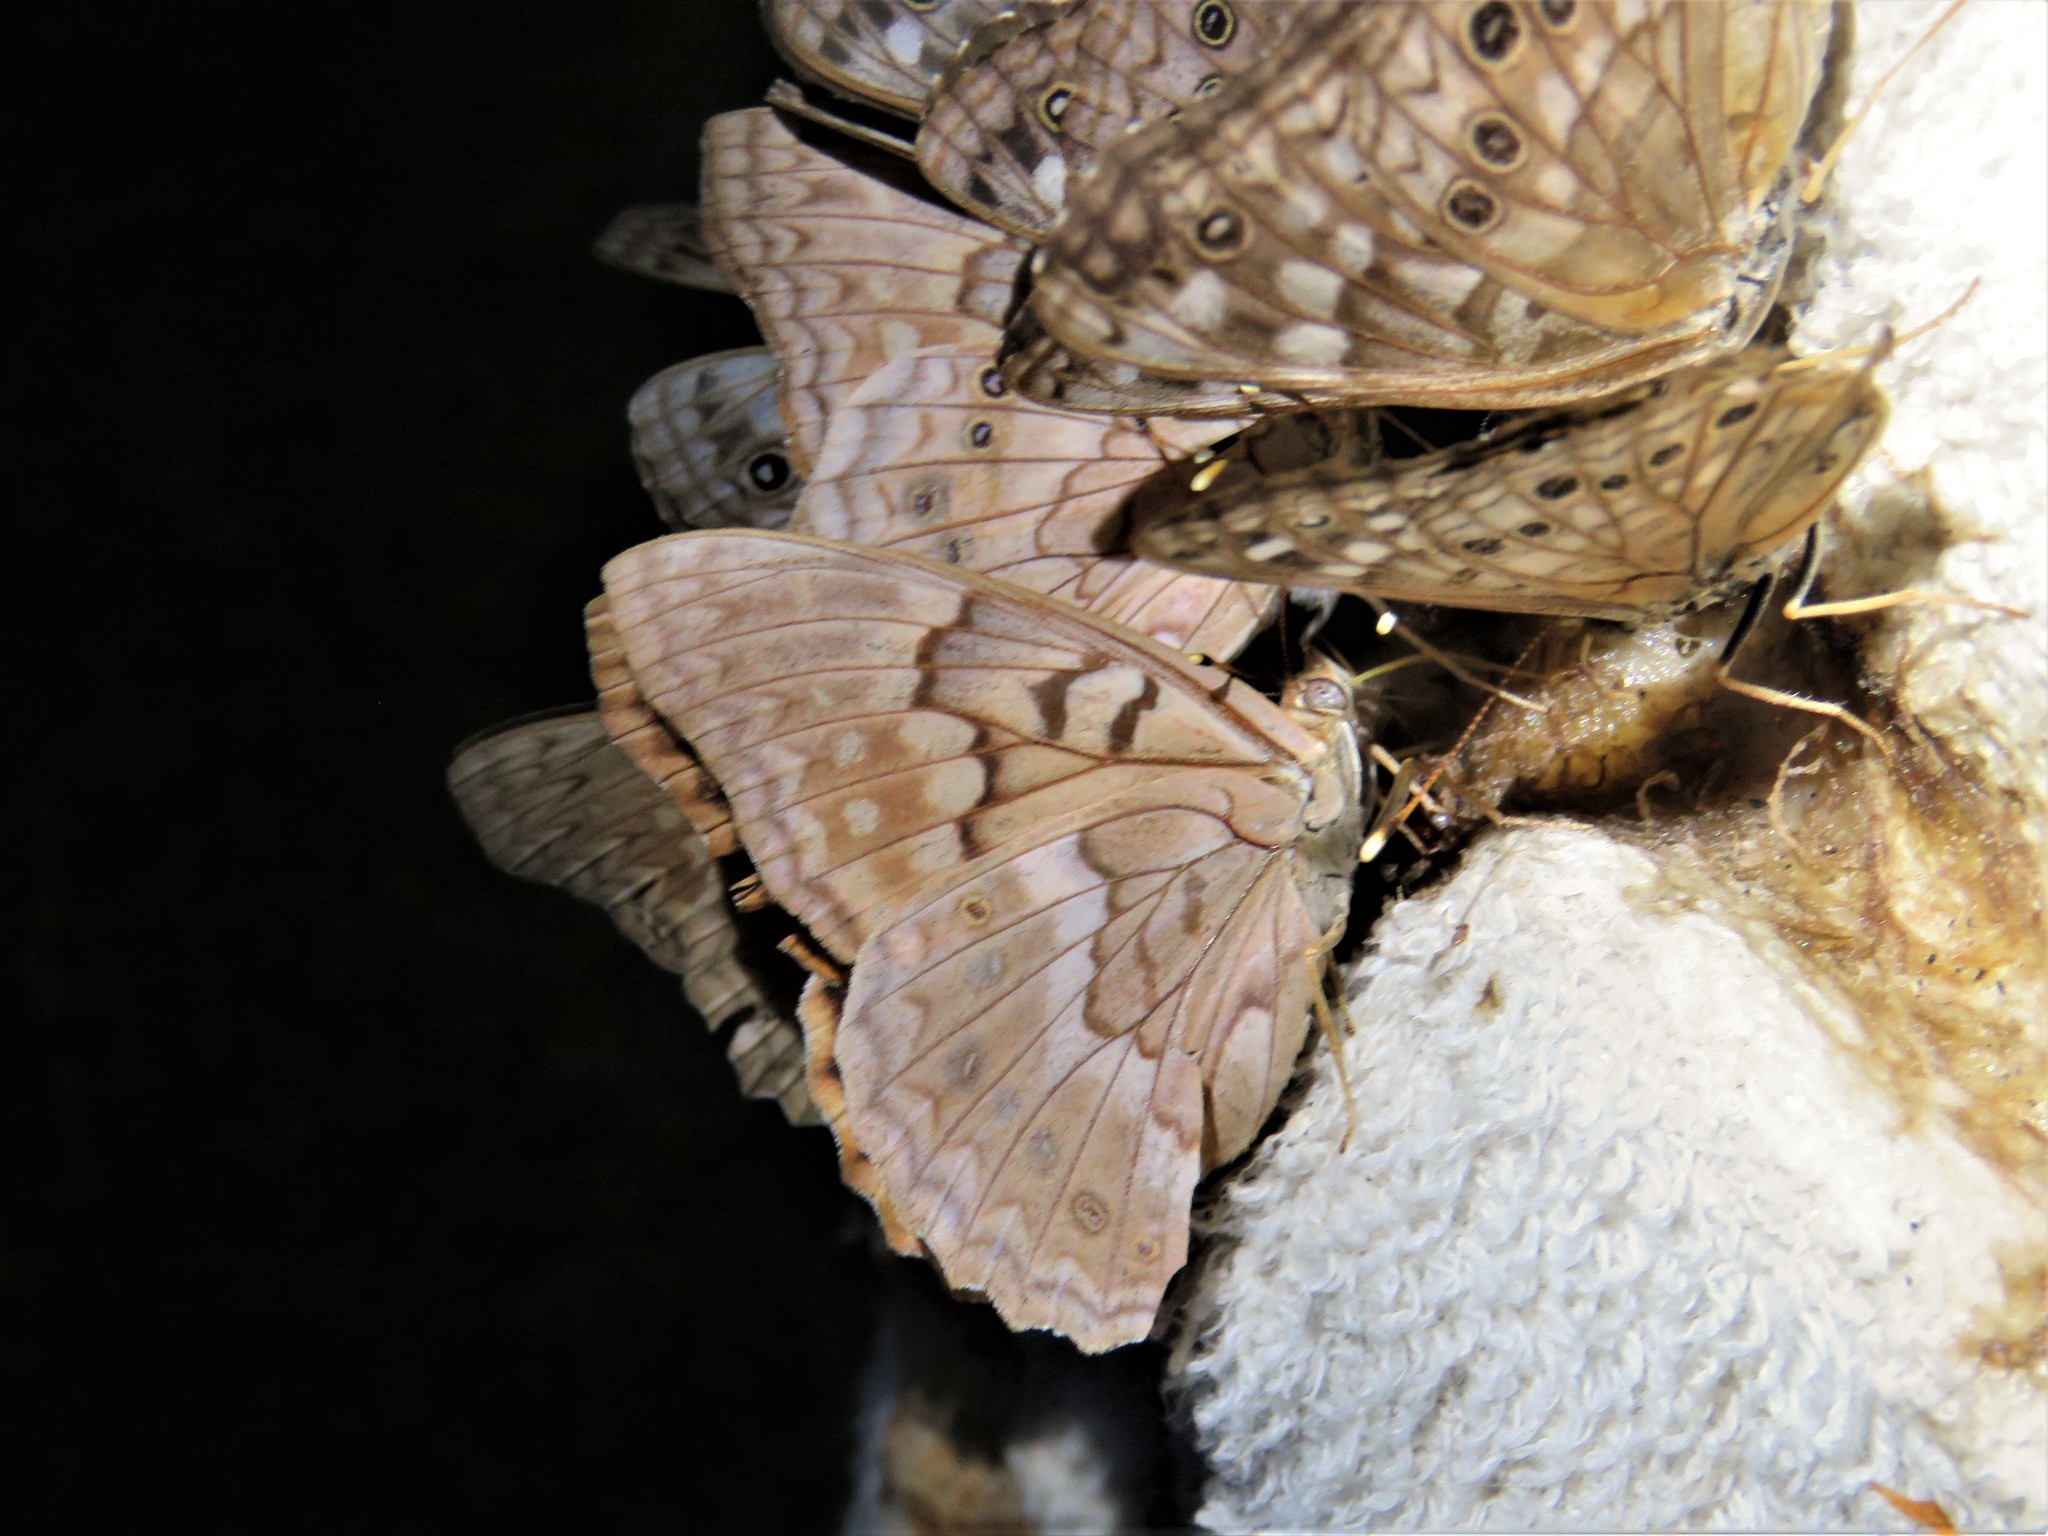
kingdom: Animalia
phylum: Arthropoda
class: Insecta
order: Lepidoptera
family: Nymphalidae
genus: Asterocampa
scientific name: Asterocampa clyton
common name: Tawny emperor
